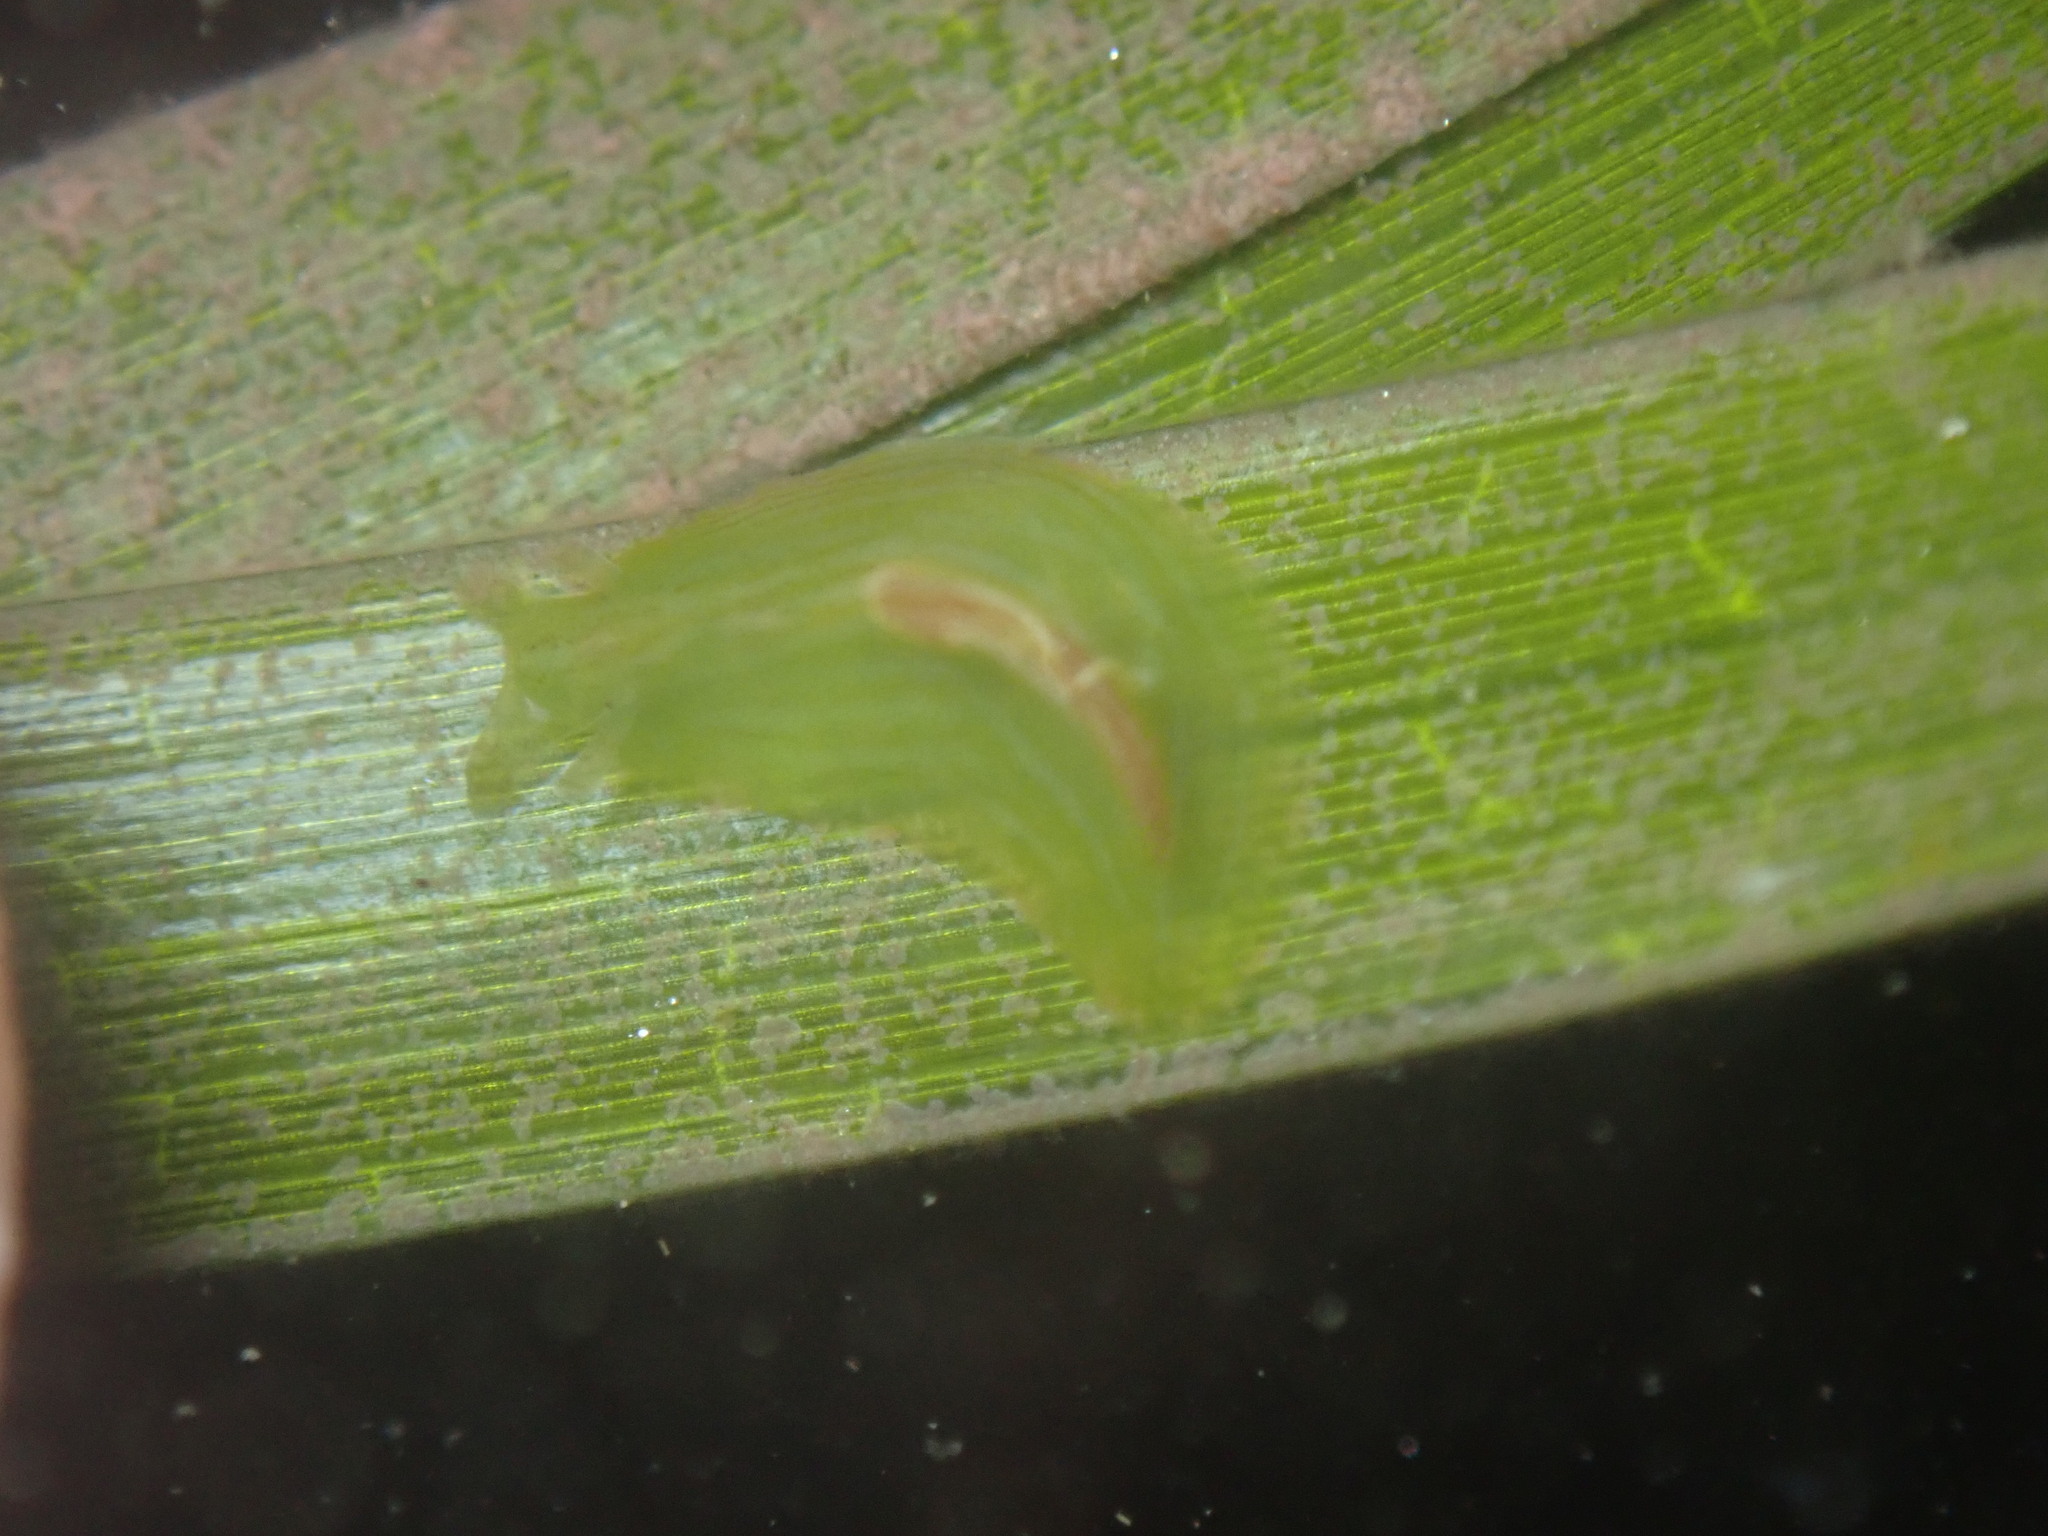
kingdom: Animalia
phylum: Mollusca
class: Gastropoda
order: Aplysiida
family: Aplysiidae
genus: Phyllaplysia
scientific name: Phyllaplysia taylori
